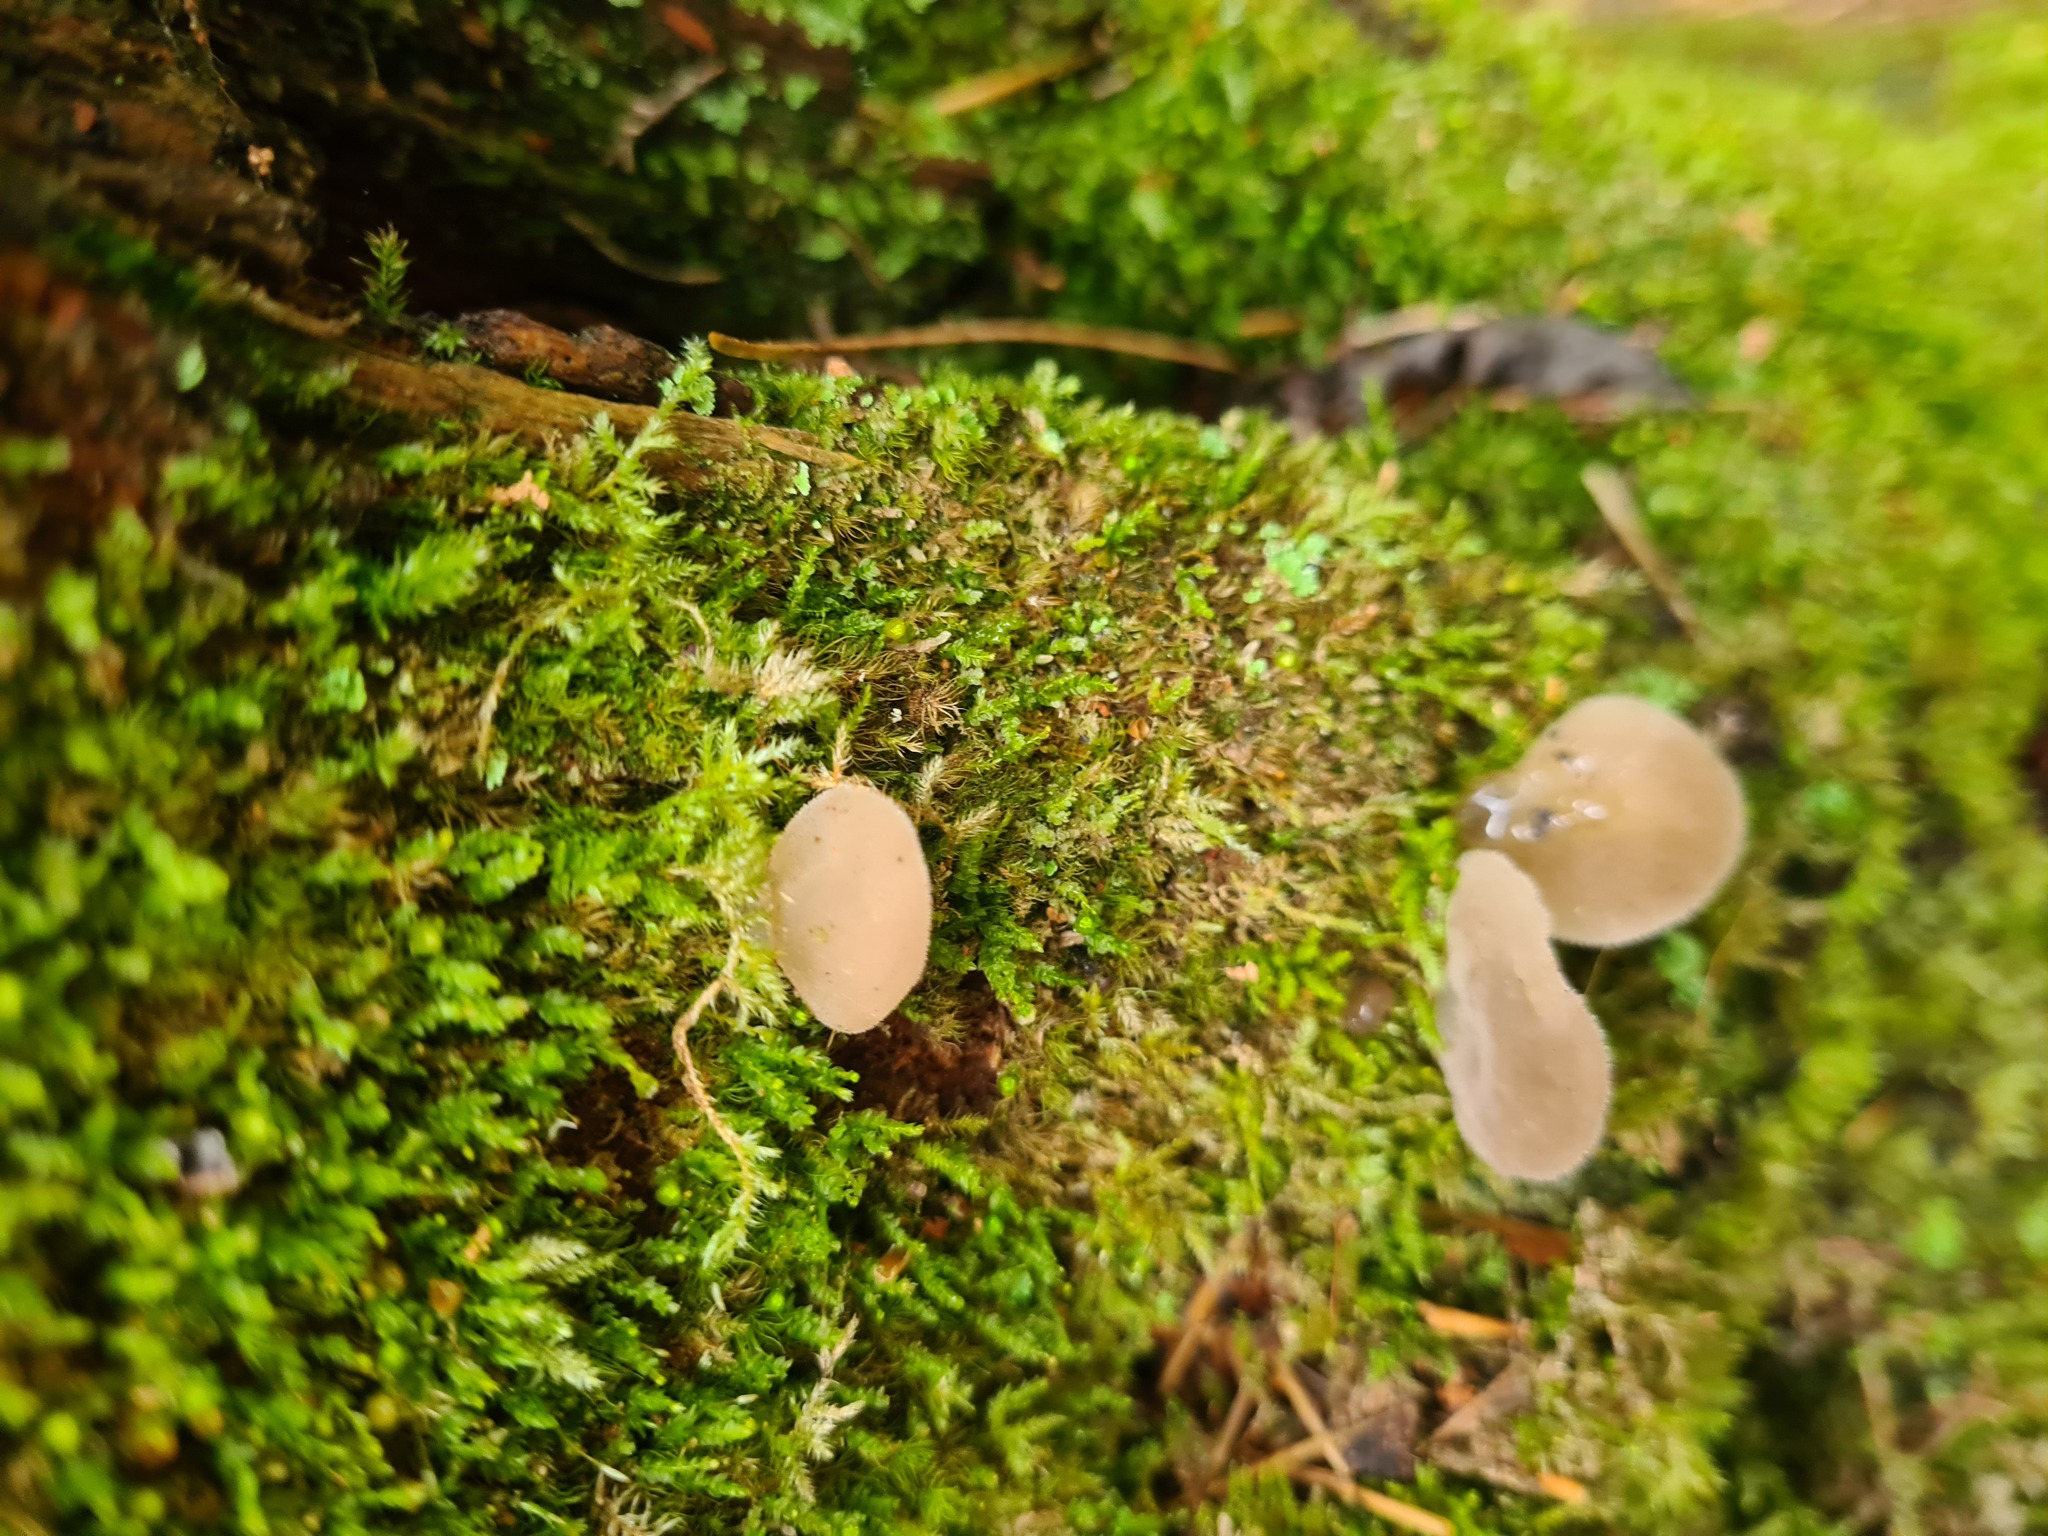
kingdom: Fungi
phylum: Basidiomycota
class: Agaricomycetes
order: Auriculariales
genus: Pseudohydnum
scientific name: Pseudohydnum gelatinosum
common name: Jelly tongue
